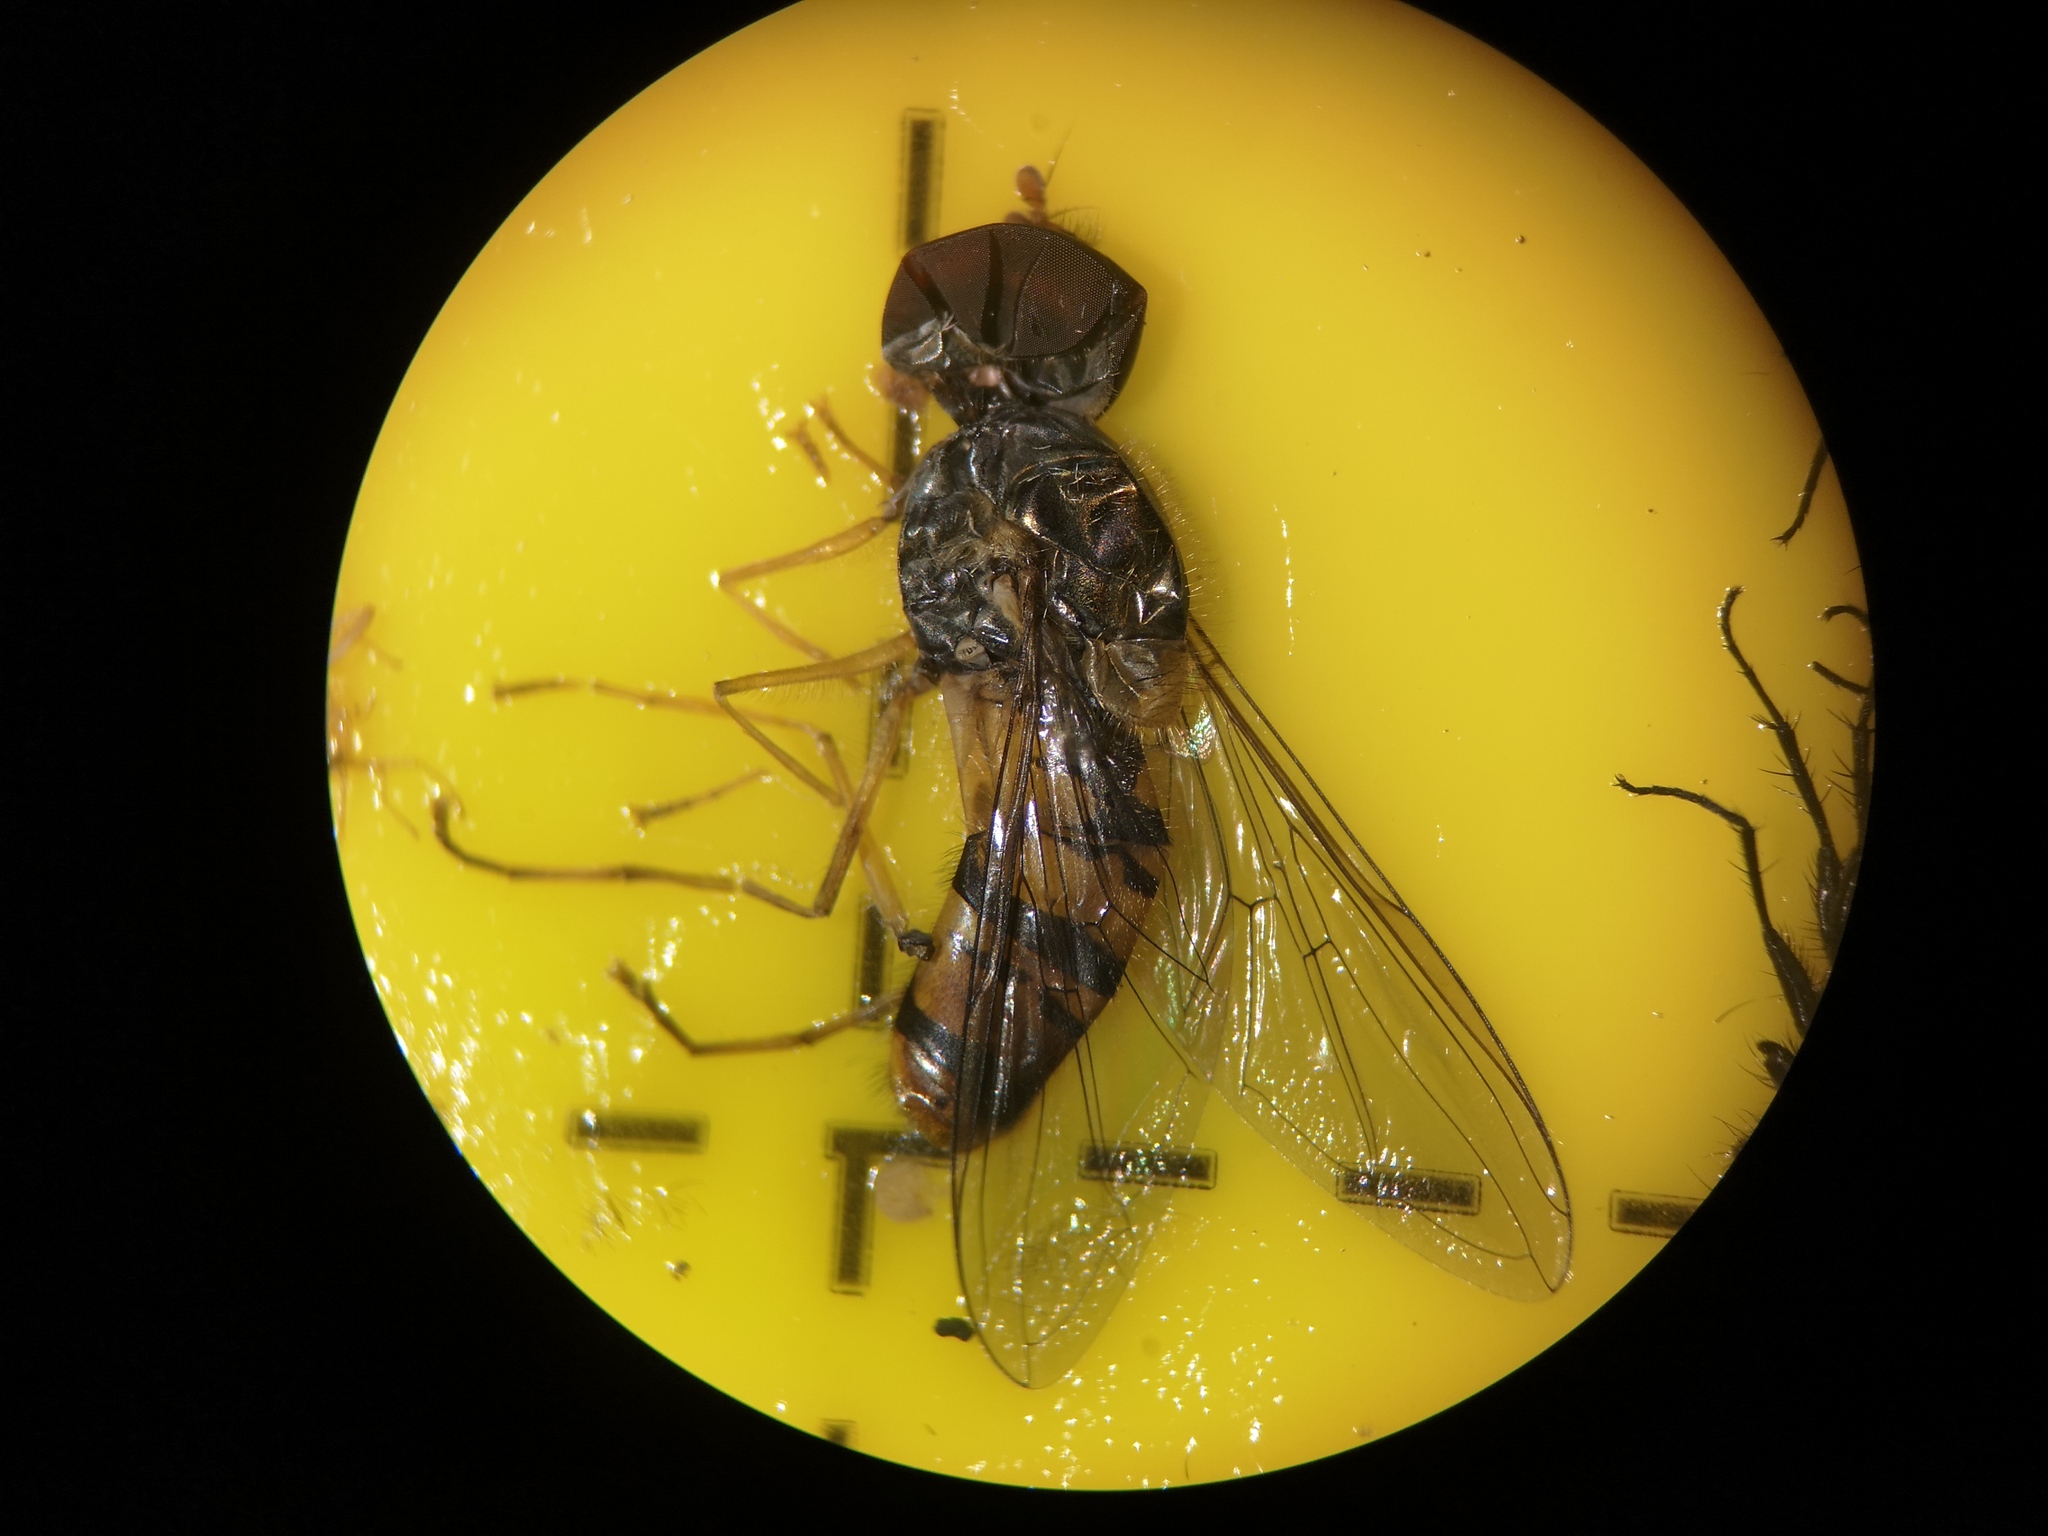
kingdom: Animalia
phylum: Arthropoda
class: Insecta
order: Diptera
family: Syrphidae
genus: Episyrphus
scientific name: Episyrphus balteatus
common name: Marmalade hoverfly
